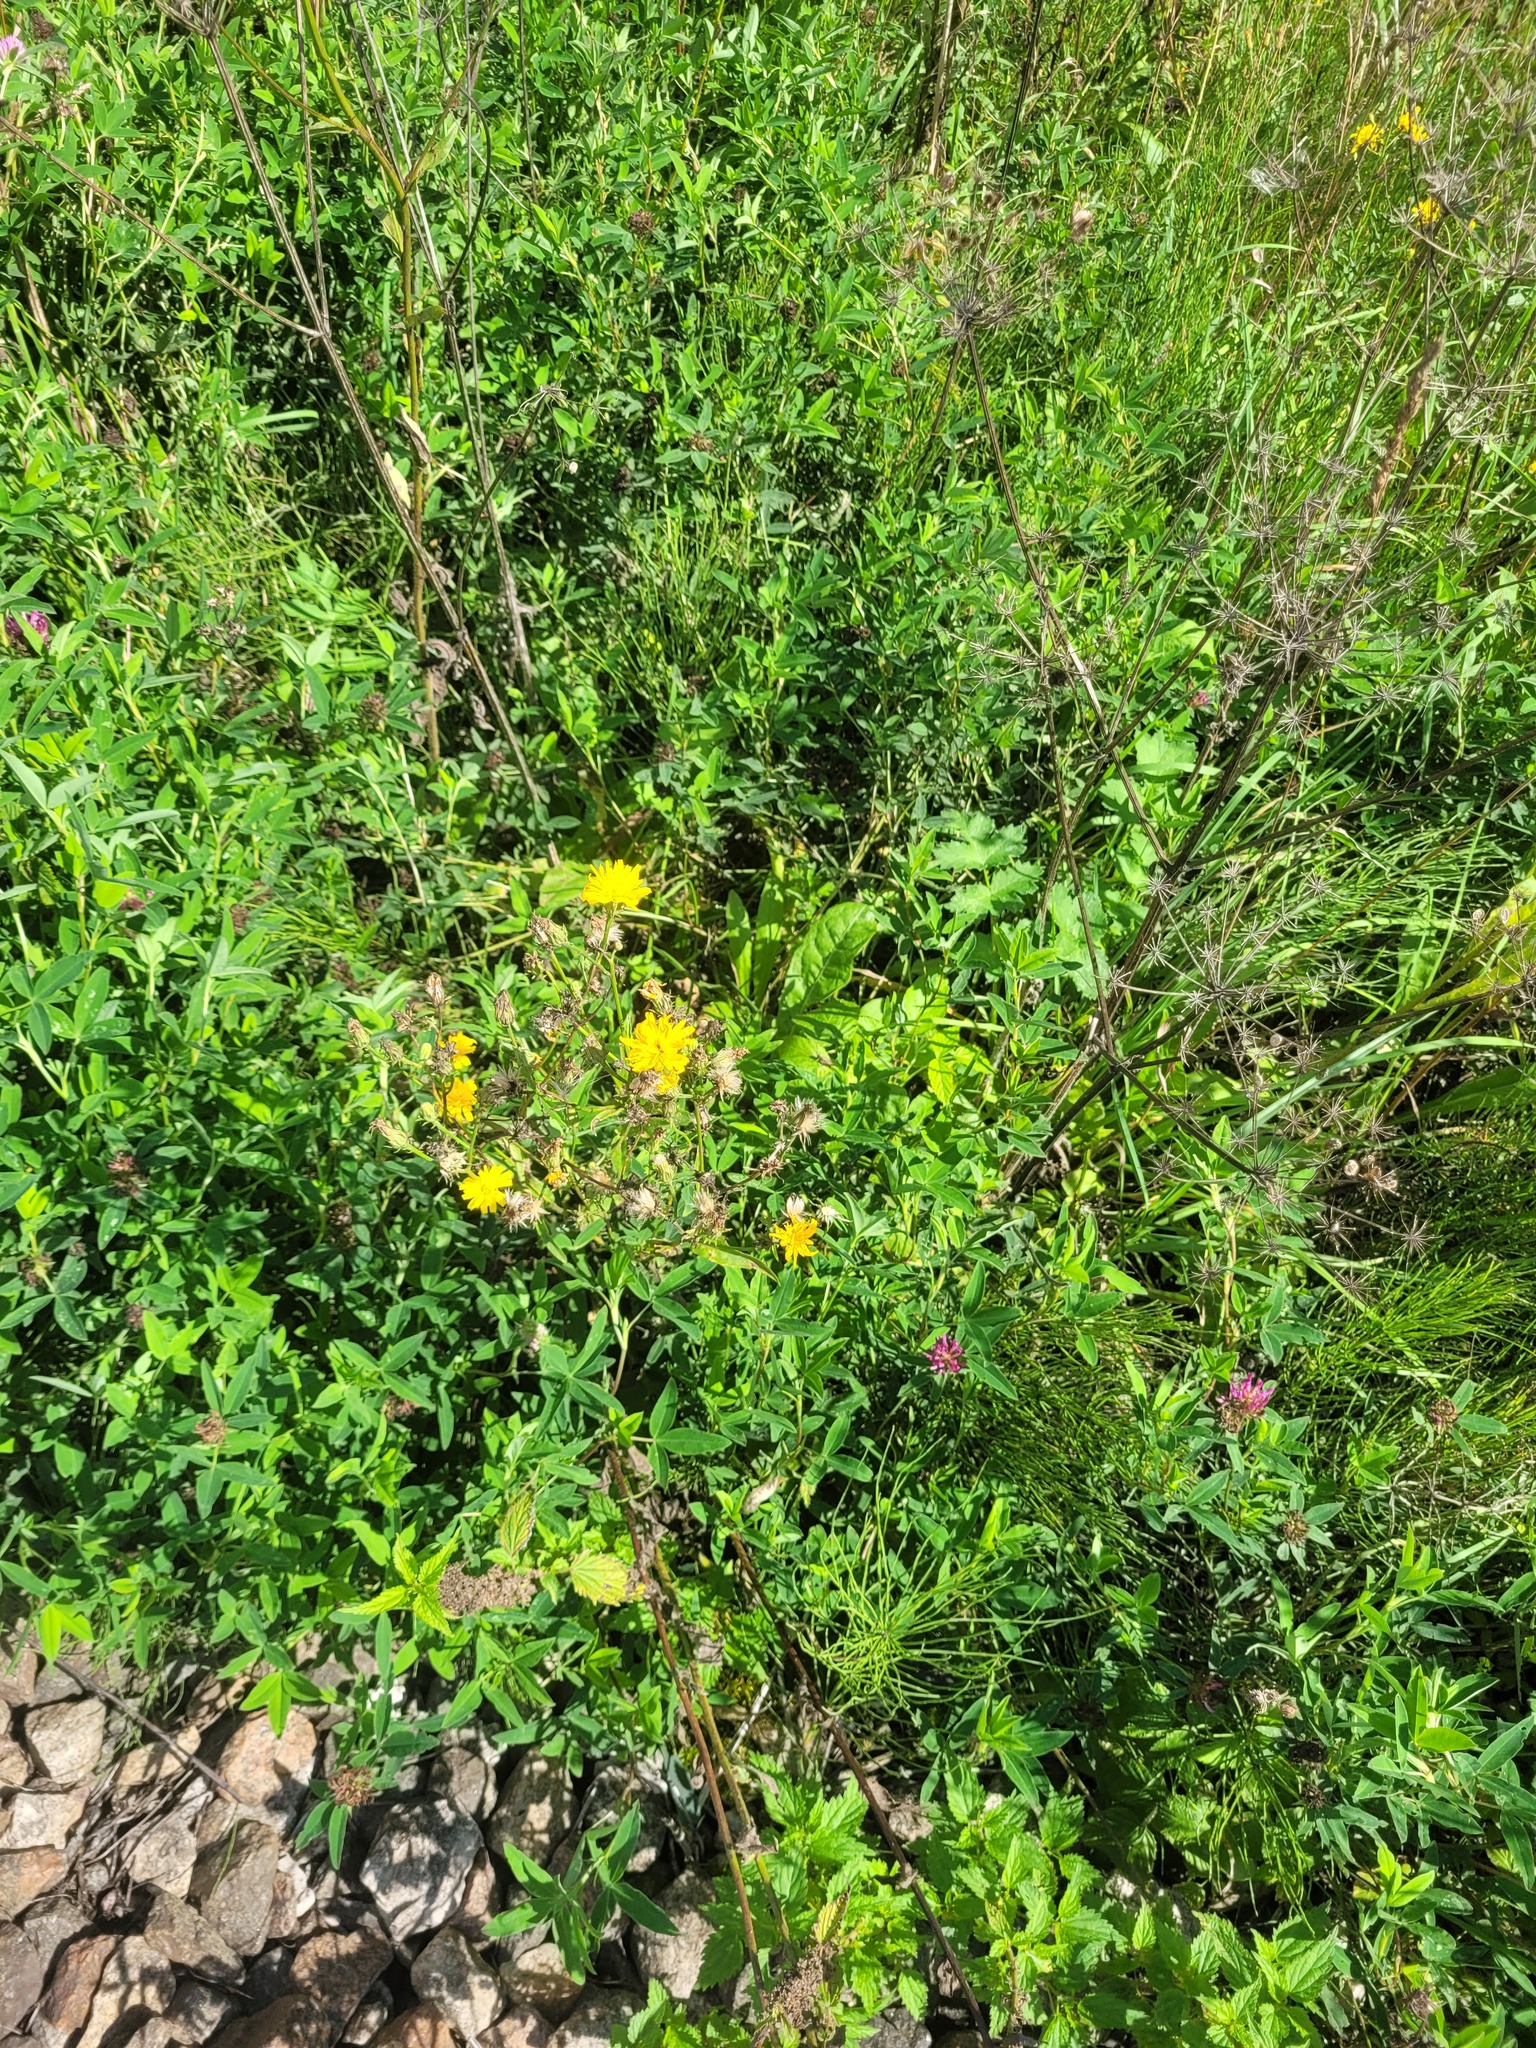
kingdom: Plantae
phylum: Tracheophyta
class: Magnoliopsida
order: Asterales
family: Asteraceae
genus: Picris
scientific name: Picris hieracioides
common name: Hawkweed oxtongue
